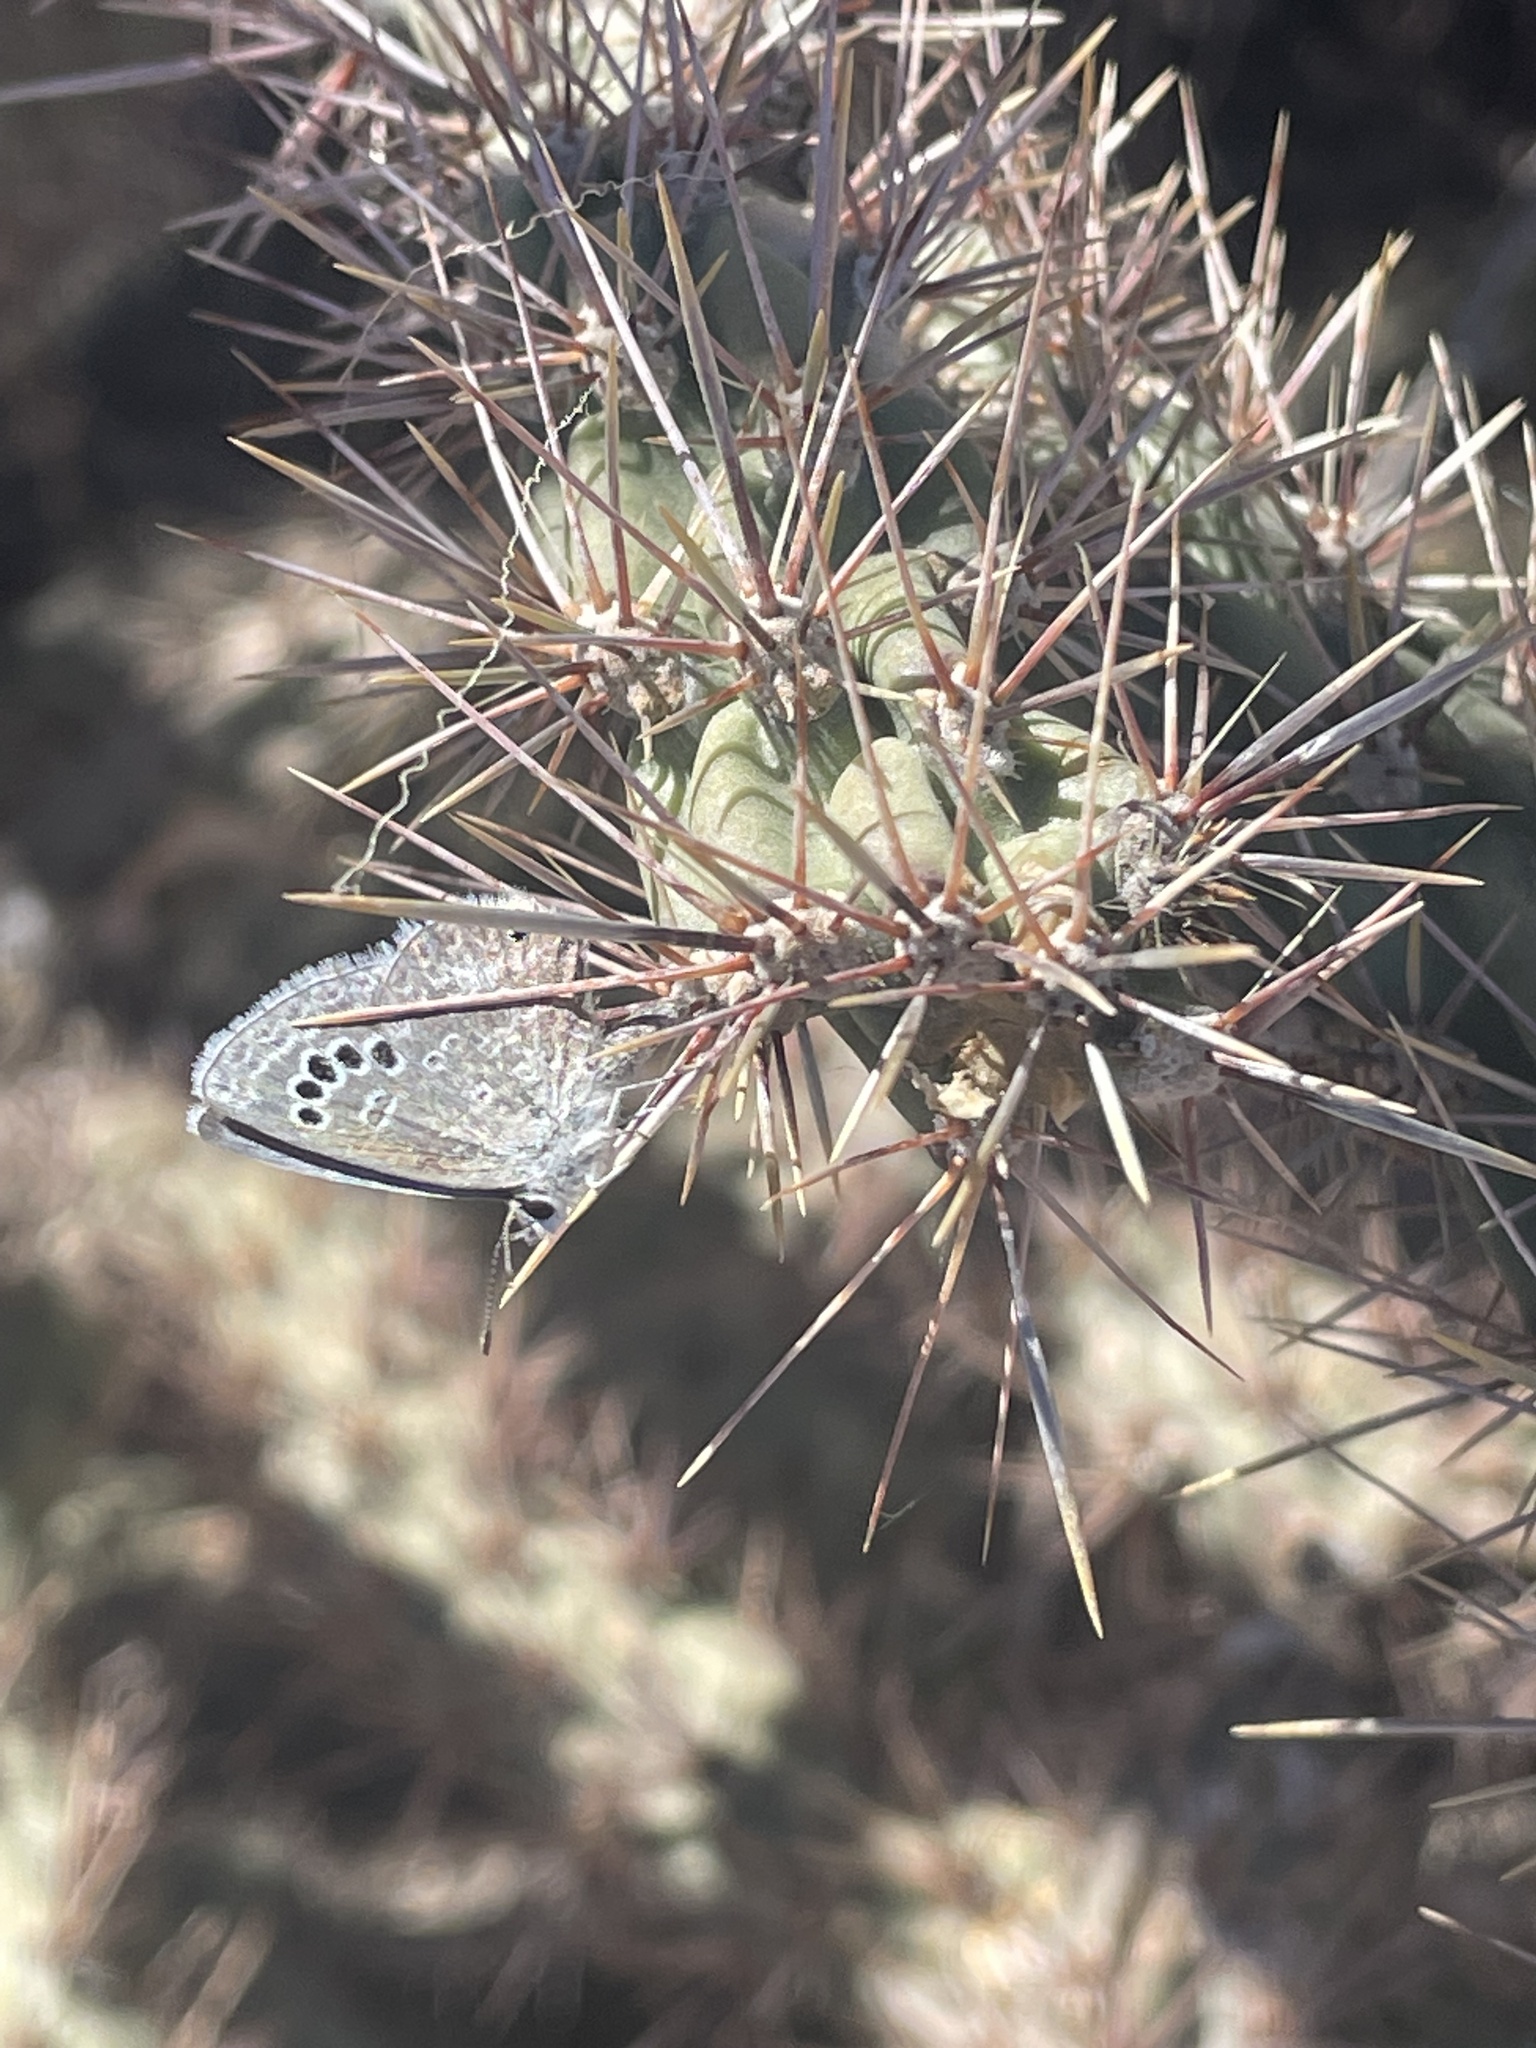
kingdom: Animalia
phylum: Arthropoda
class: Insecta
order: Lepidoptera
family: Lycaenidae
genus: Echinargus
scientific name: Echinargus isola
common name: Reakirt's blue
